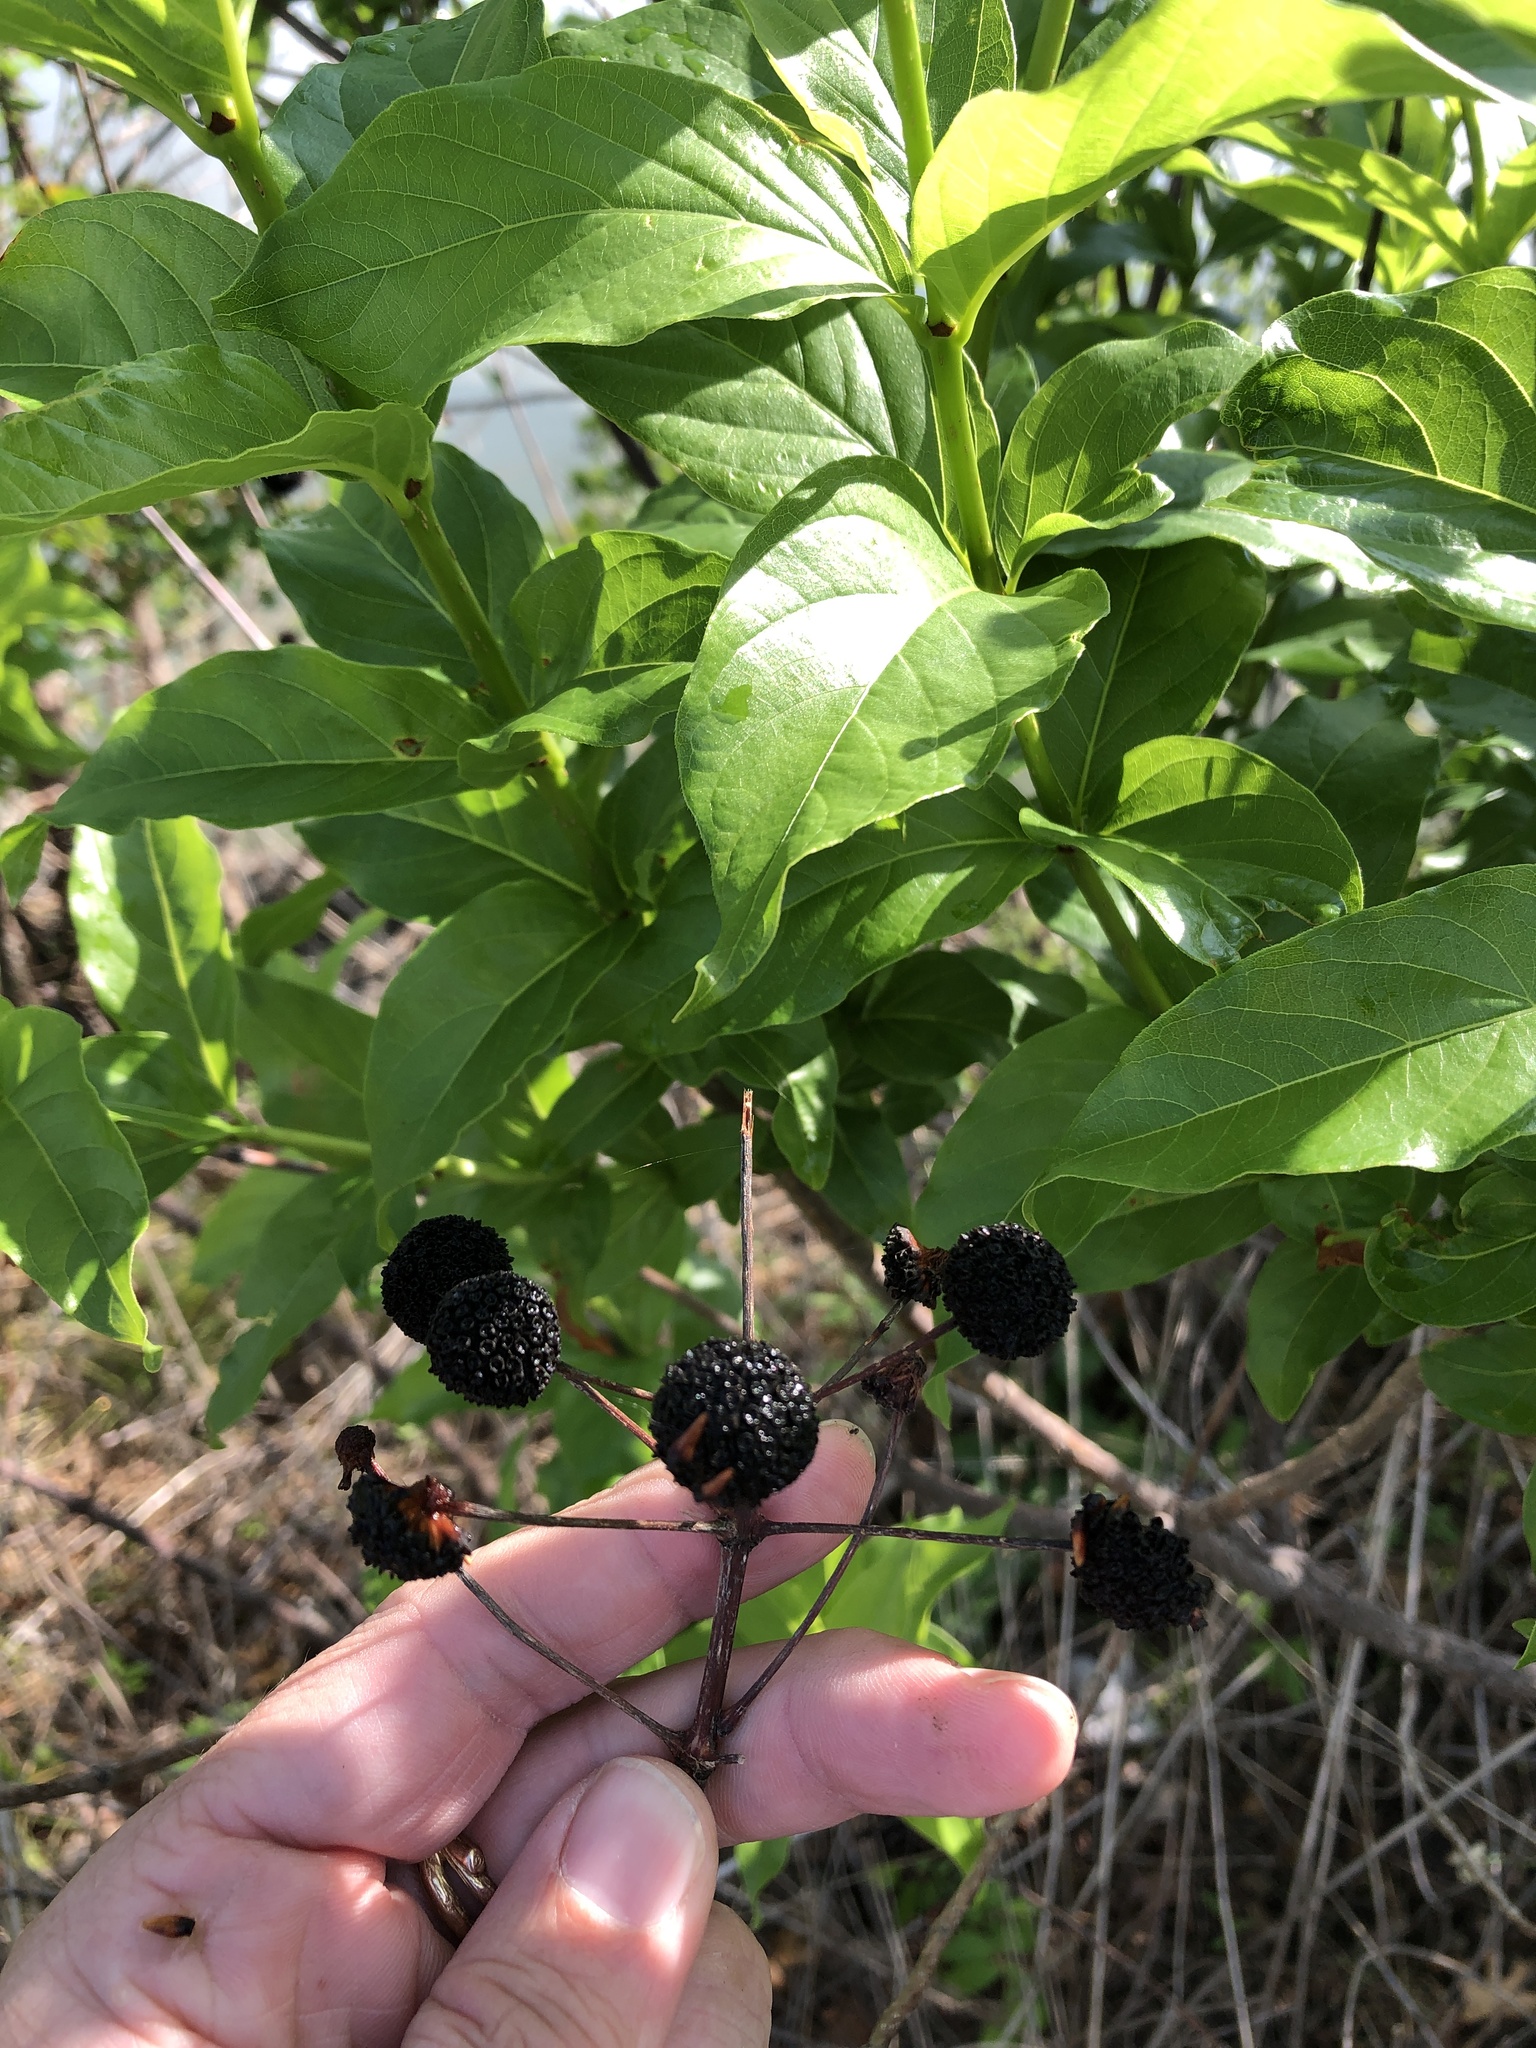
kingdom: Plantae
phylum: Tracheophyta
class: Magnoliopsida
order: Gentianales
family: Rubiaceae
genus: Cephalanthus
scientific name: Cephalanthus occidentalis
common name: Button-willow
